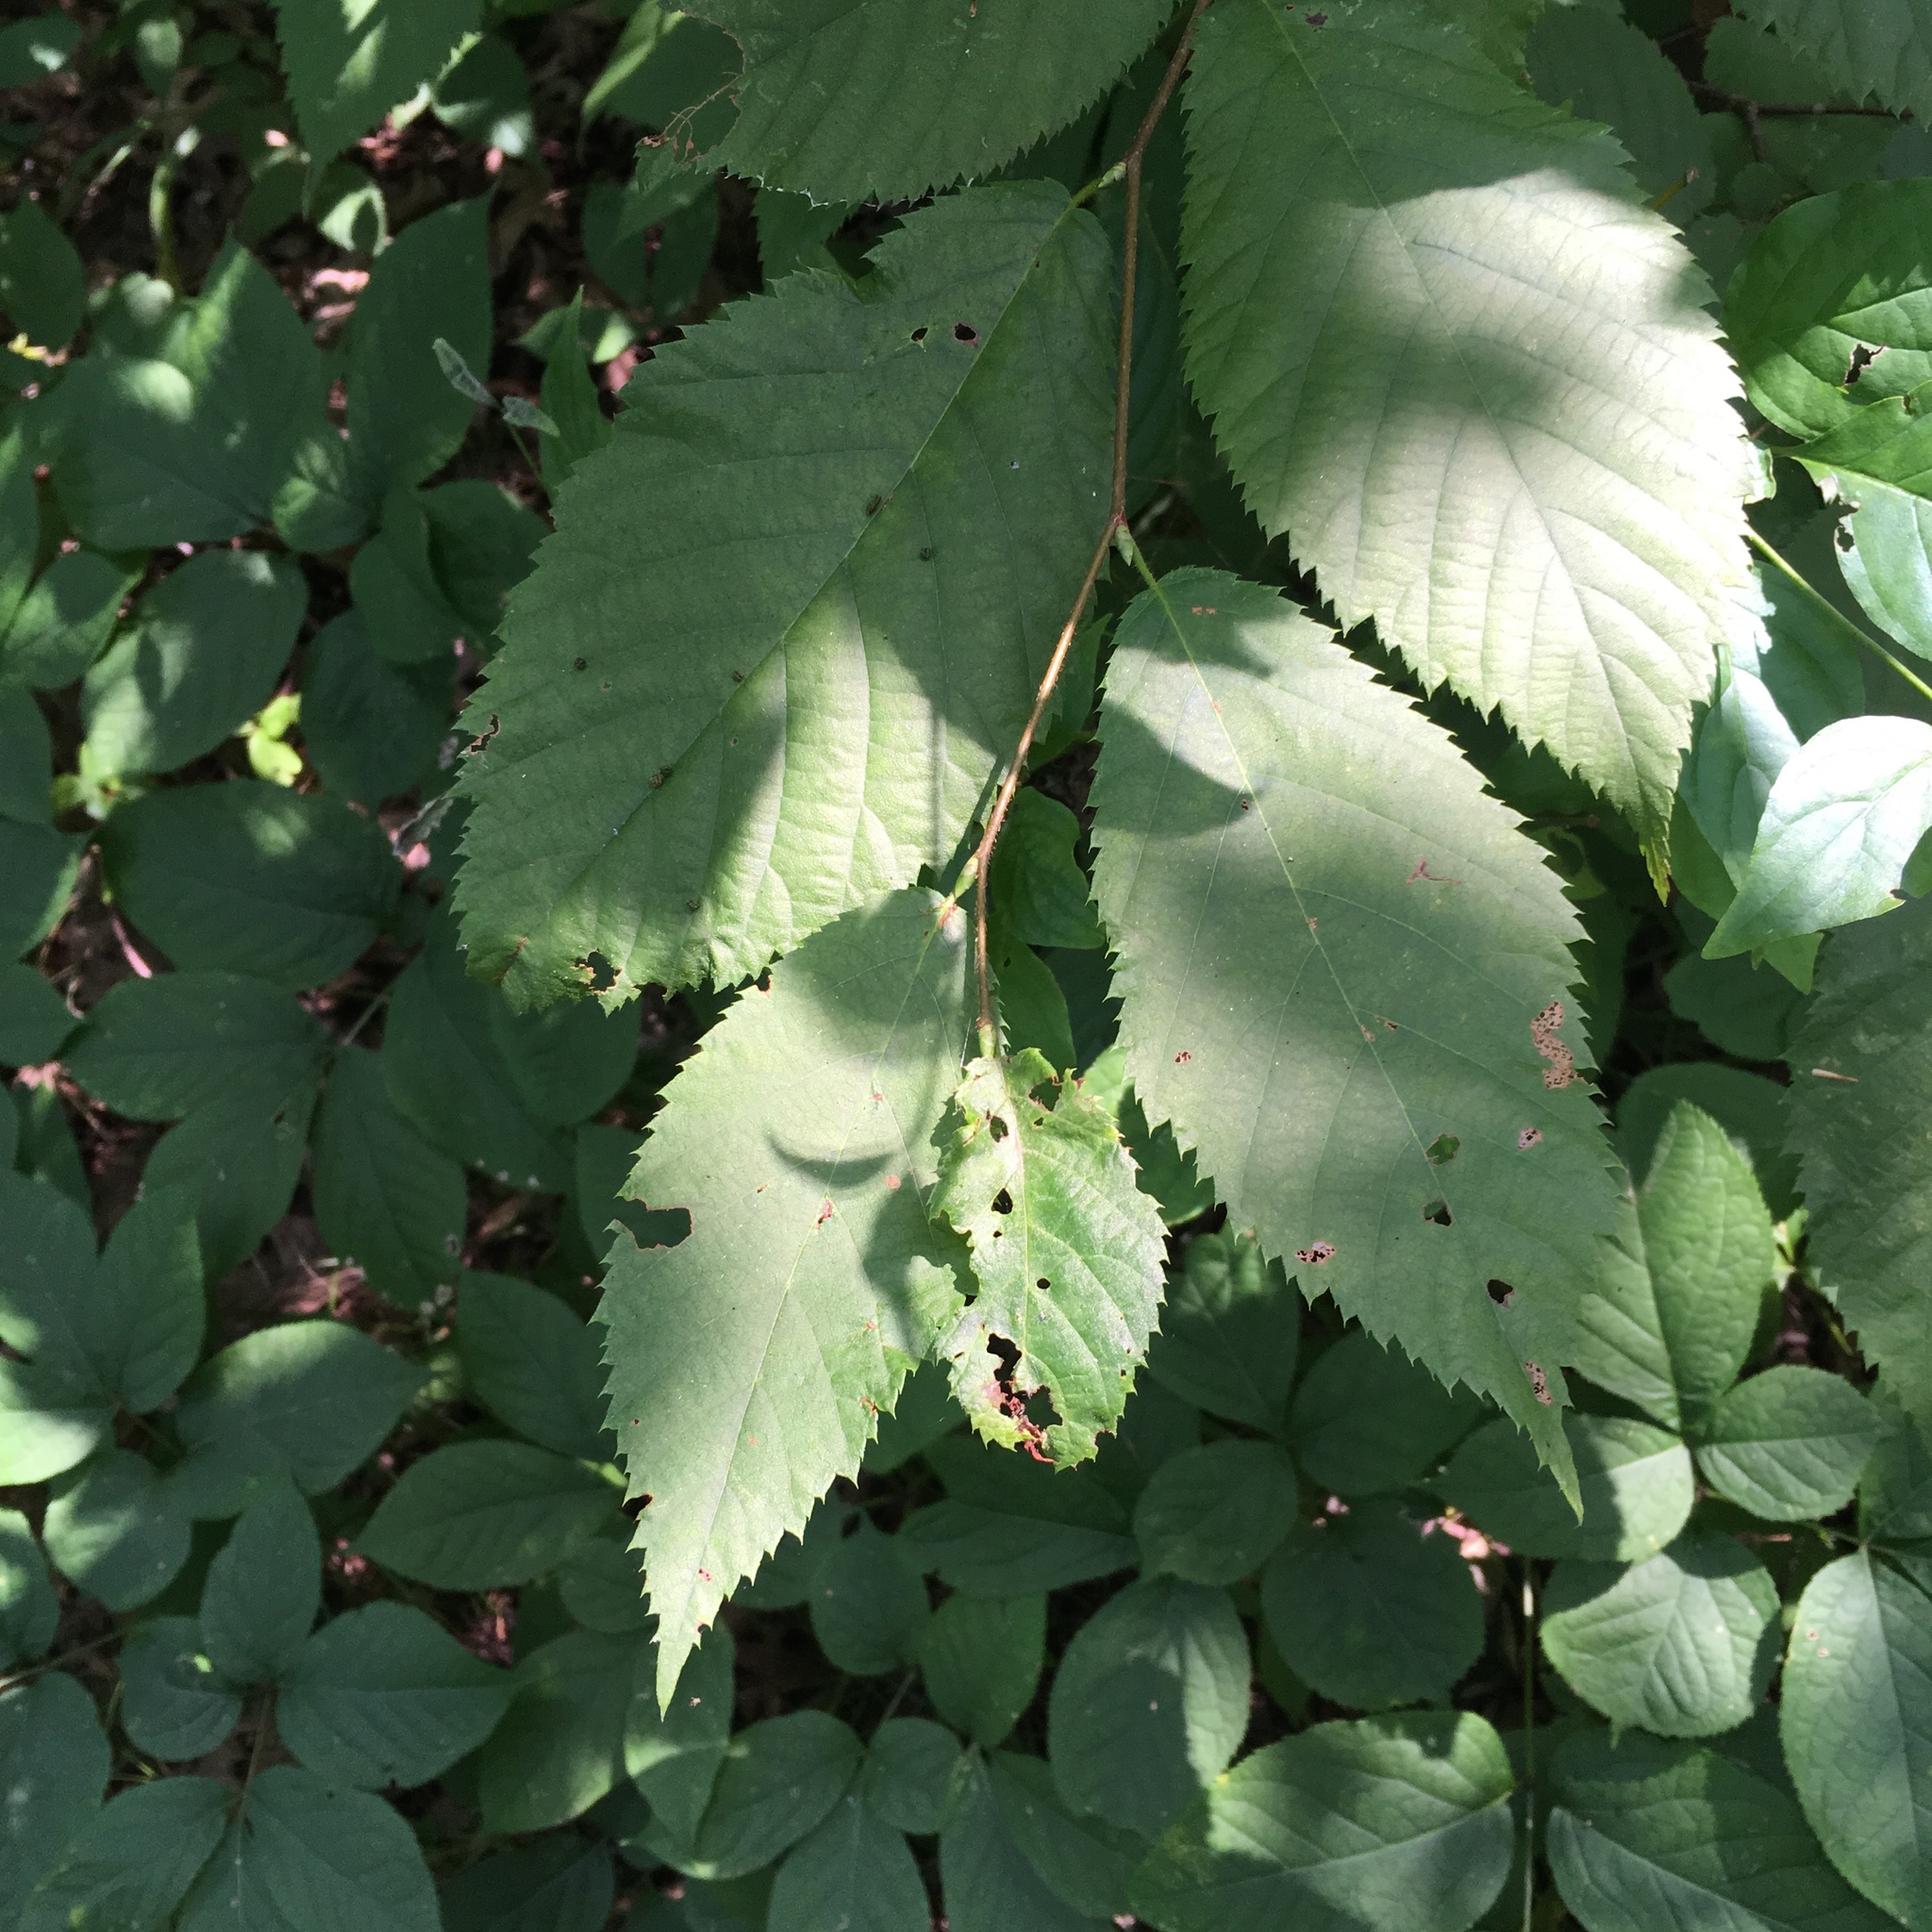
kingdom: Plantae
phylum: Tracheophyta
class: Magnoliopsida
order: Fagales
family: Betulaceae
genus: Ostrya
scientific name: Ostrya virginiana
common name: Ironwood
